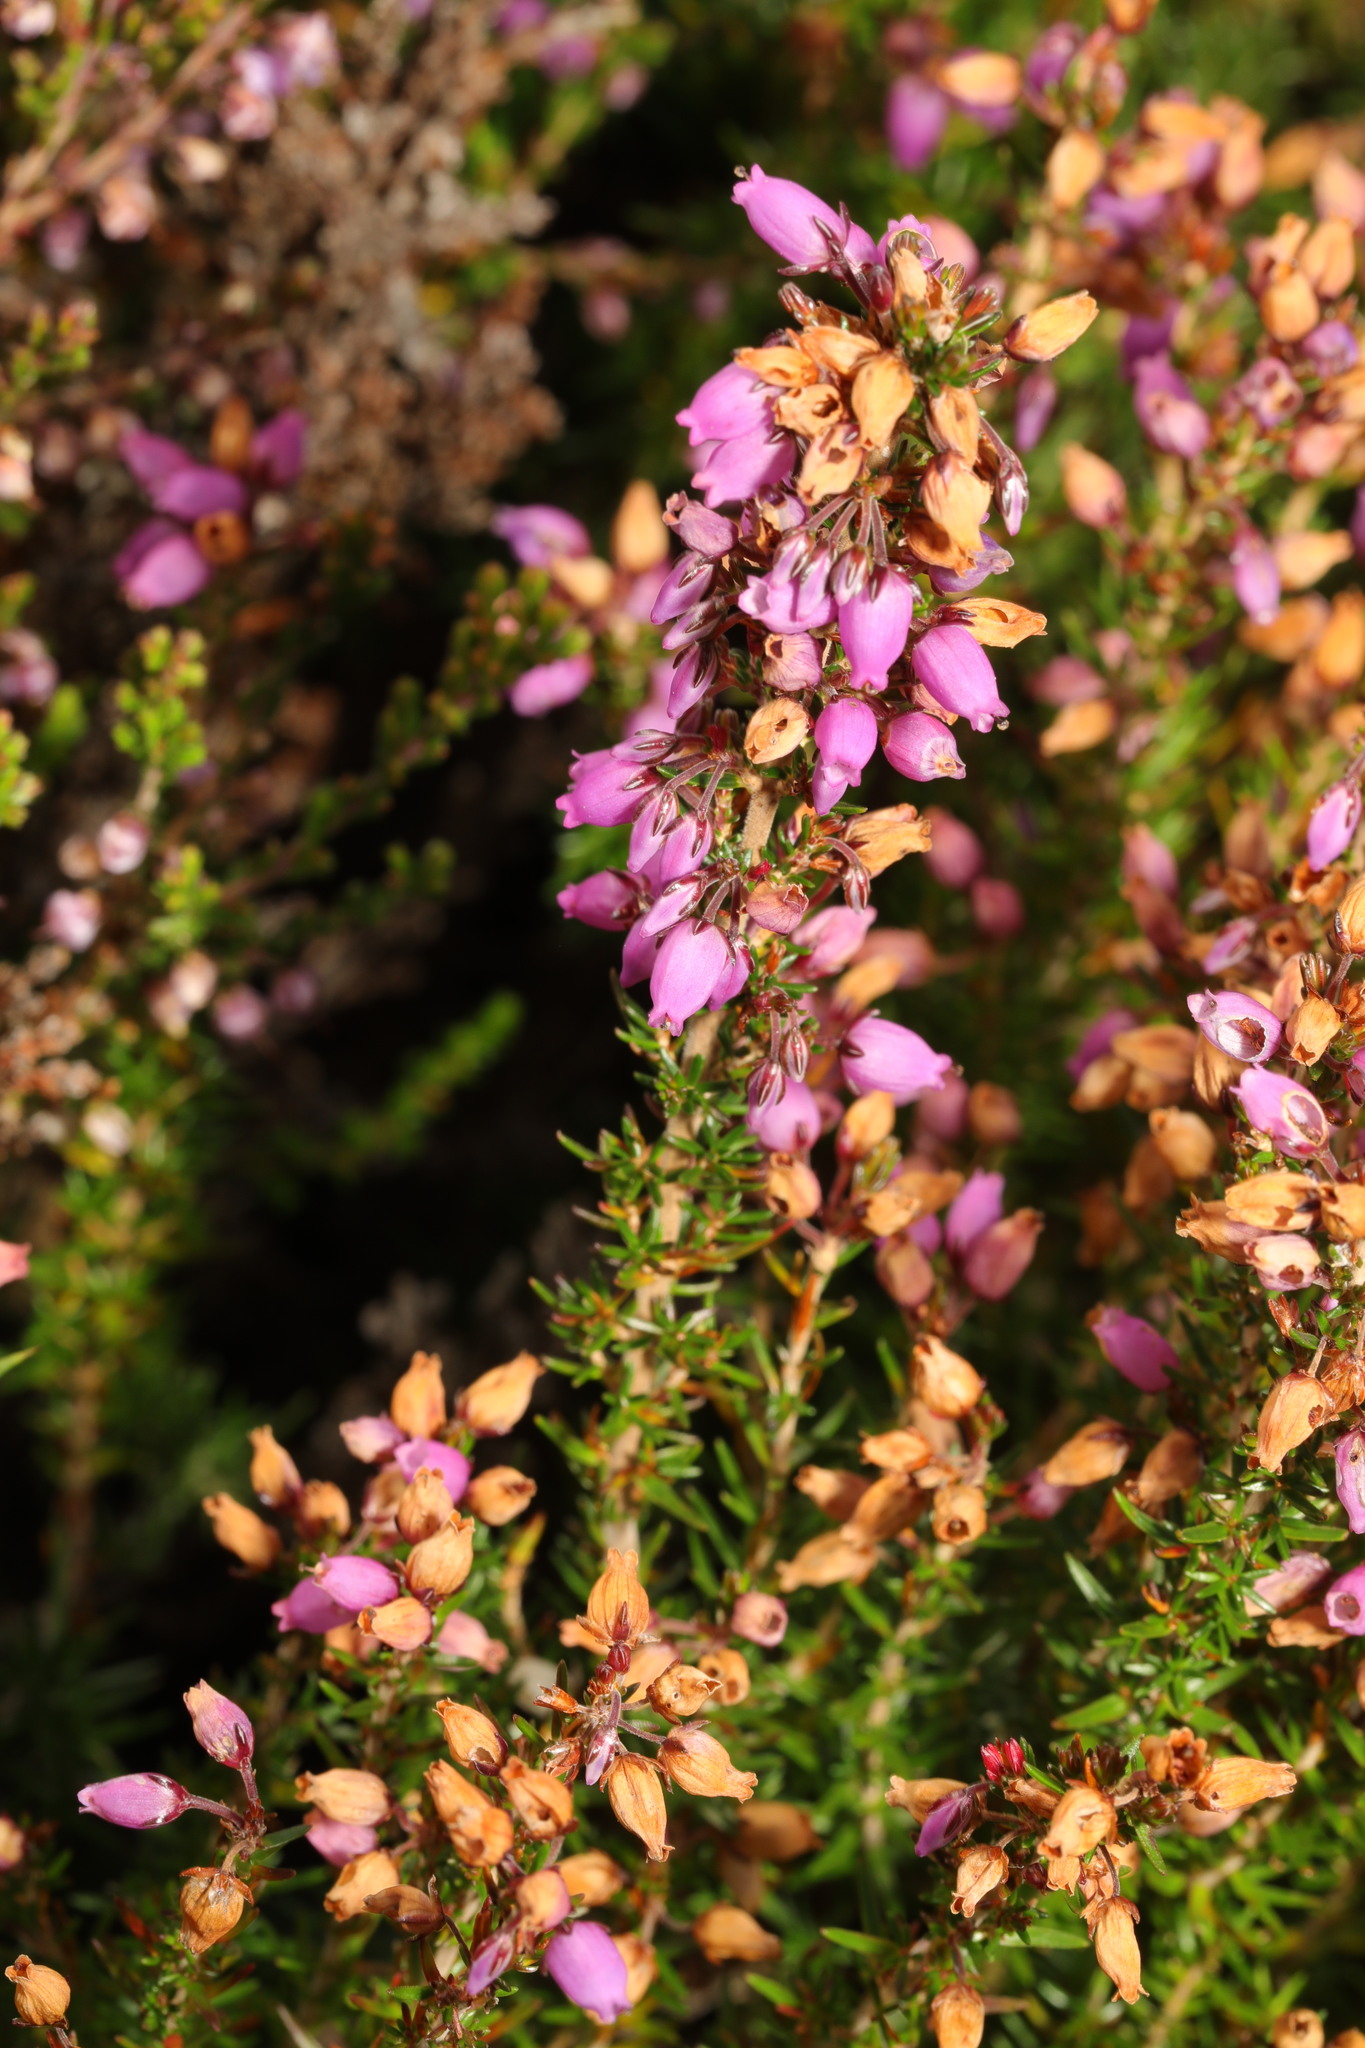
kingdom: Plantae
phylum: Tracheophyta
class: Magnoliopsida
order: Ericales
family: Ericaceae
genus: Erica
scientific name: Erica cinerea
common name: Bell heather
